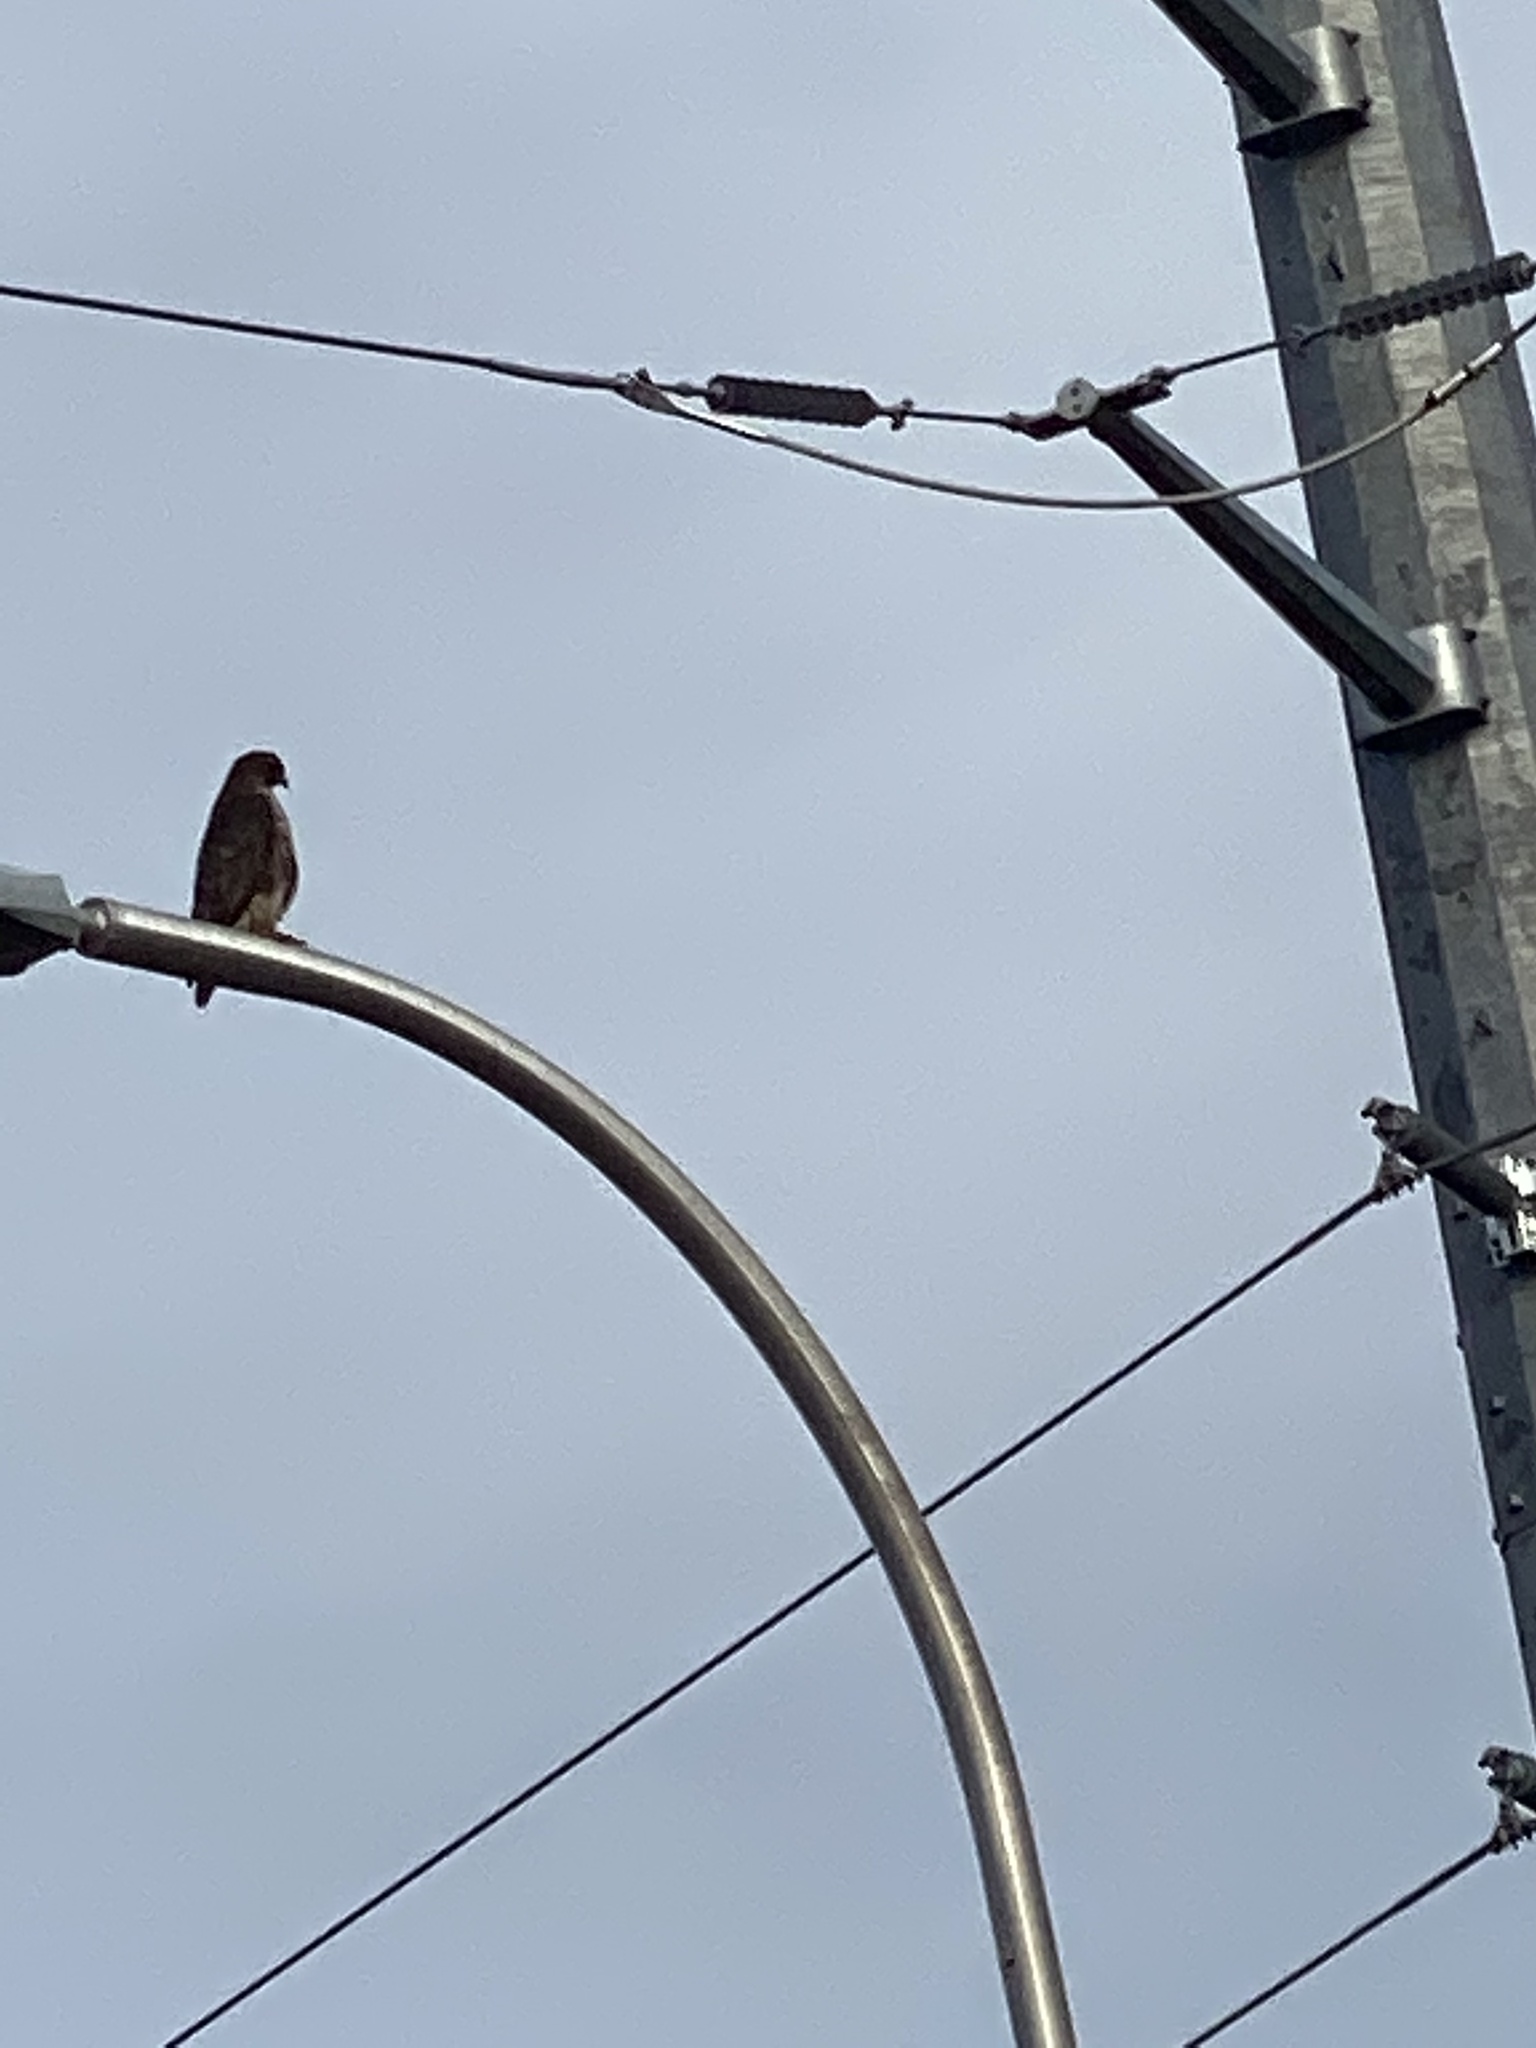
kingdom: Animalia
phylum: Chordata
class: Aves
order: Accipitriformes
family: Accipitridae
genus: Buteo
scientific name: Buteo jamaicensis
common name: Red-tailed hawk
